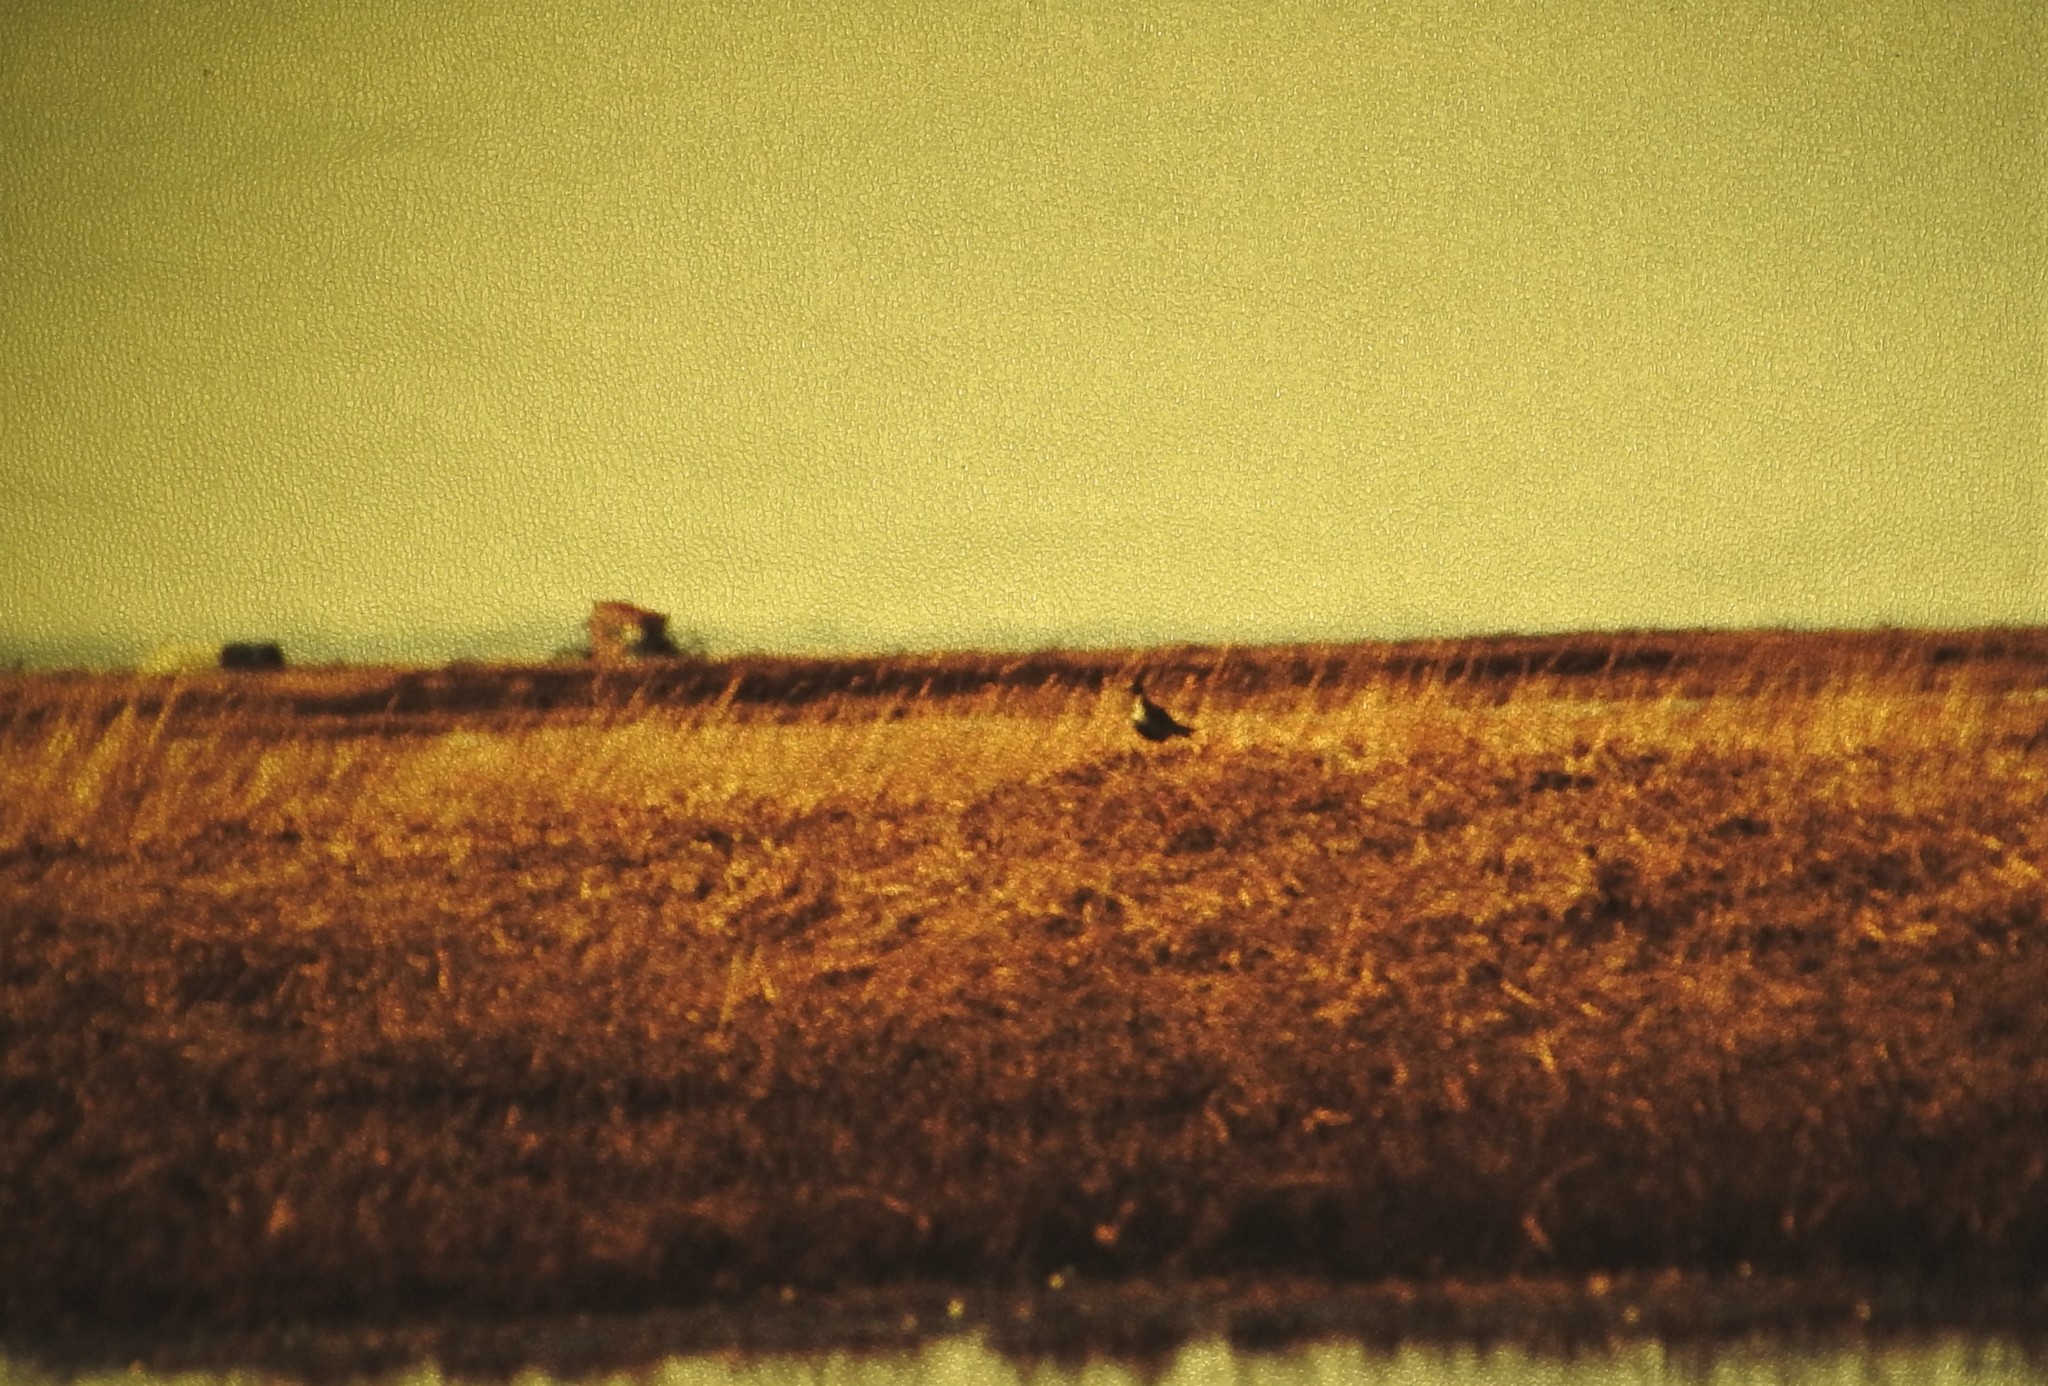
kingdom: Animalia
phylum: Chordata
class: Aves
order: Charadriiformes
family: Charadriidae
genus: Pluvialis
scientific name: Pluvialis fulva
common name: Pacific golden plover
